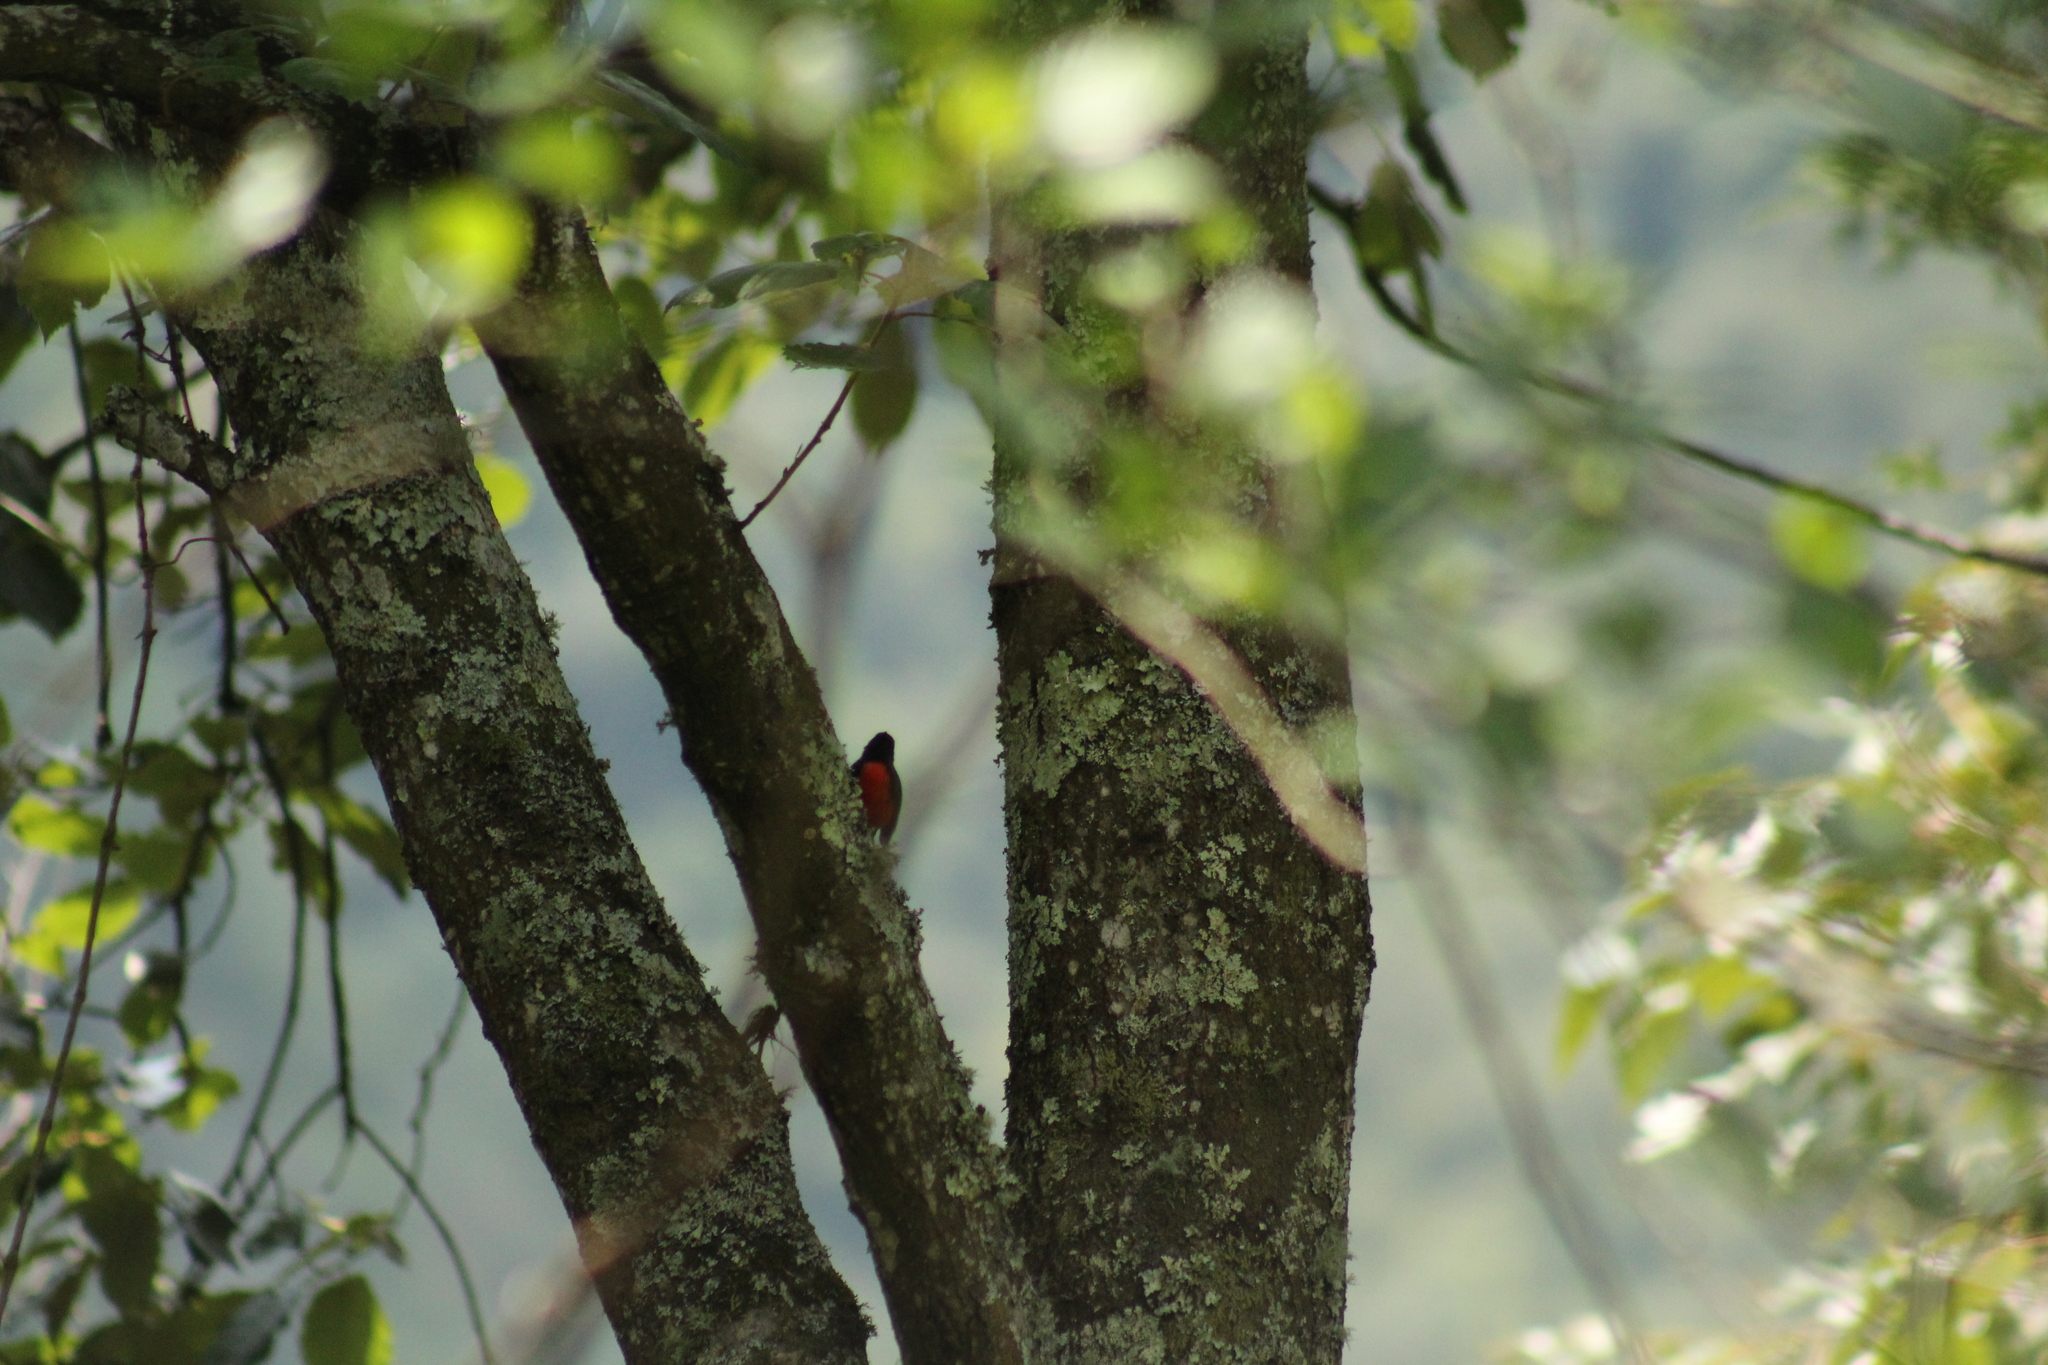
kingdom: Animalia
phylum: Chordata
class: Aves
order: Passeriformes
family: Parulidae
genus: Myioborus
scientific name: Myioborus miniatus
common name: Slate-throated redstart
